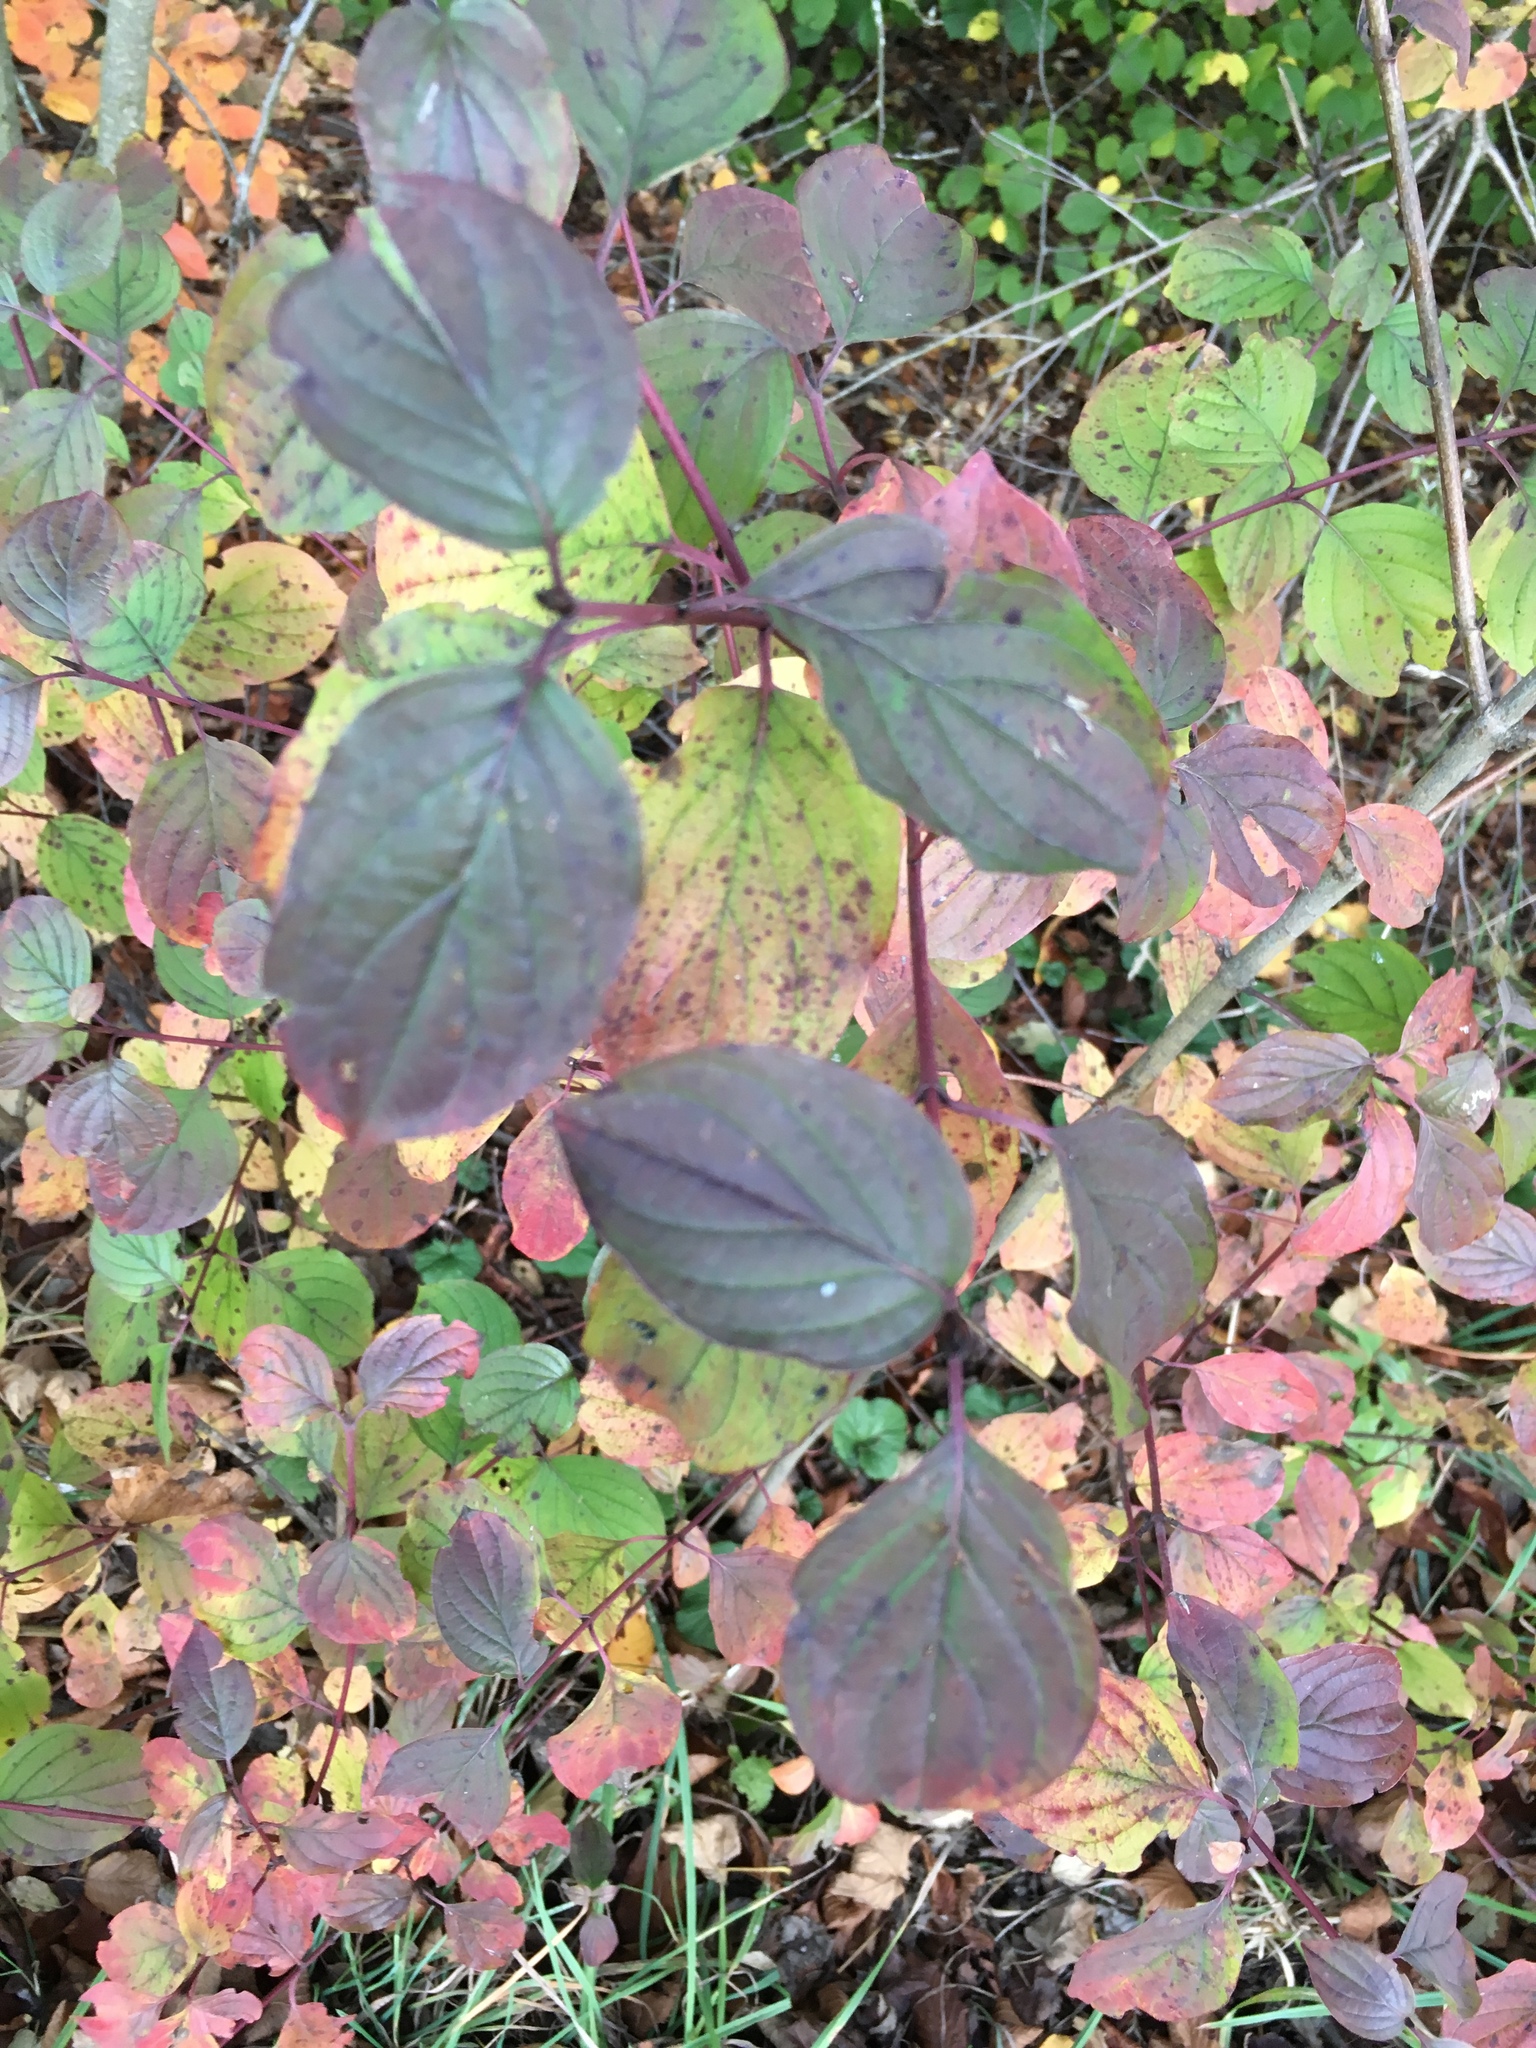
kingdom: Plantae
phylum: Tracheophyta
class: Magnoliopsida
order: Cornales
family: Cornaceae
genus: Cornus
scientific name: Cornus sanguinea
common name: Dogwood
